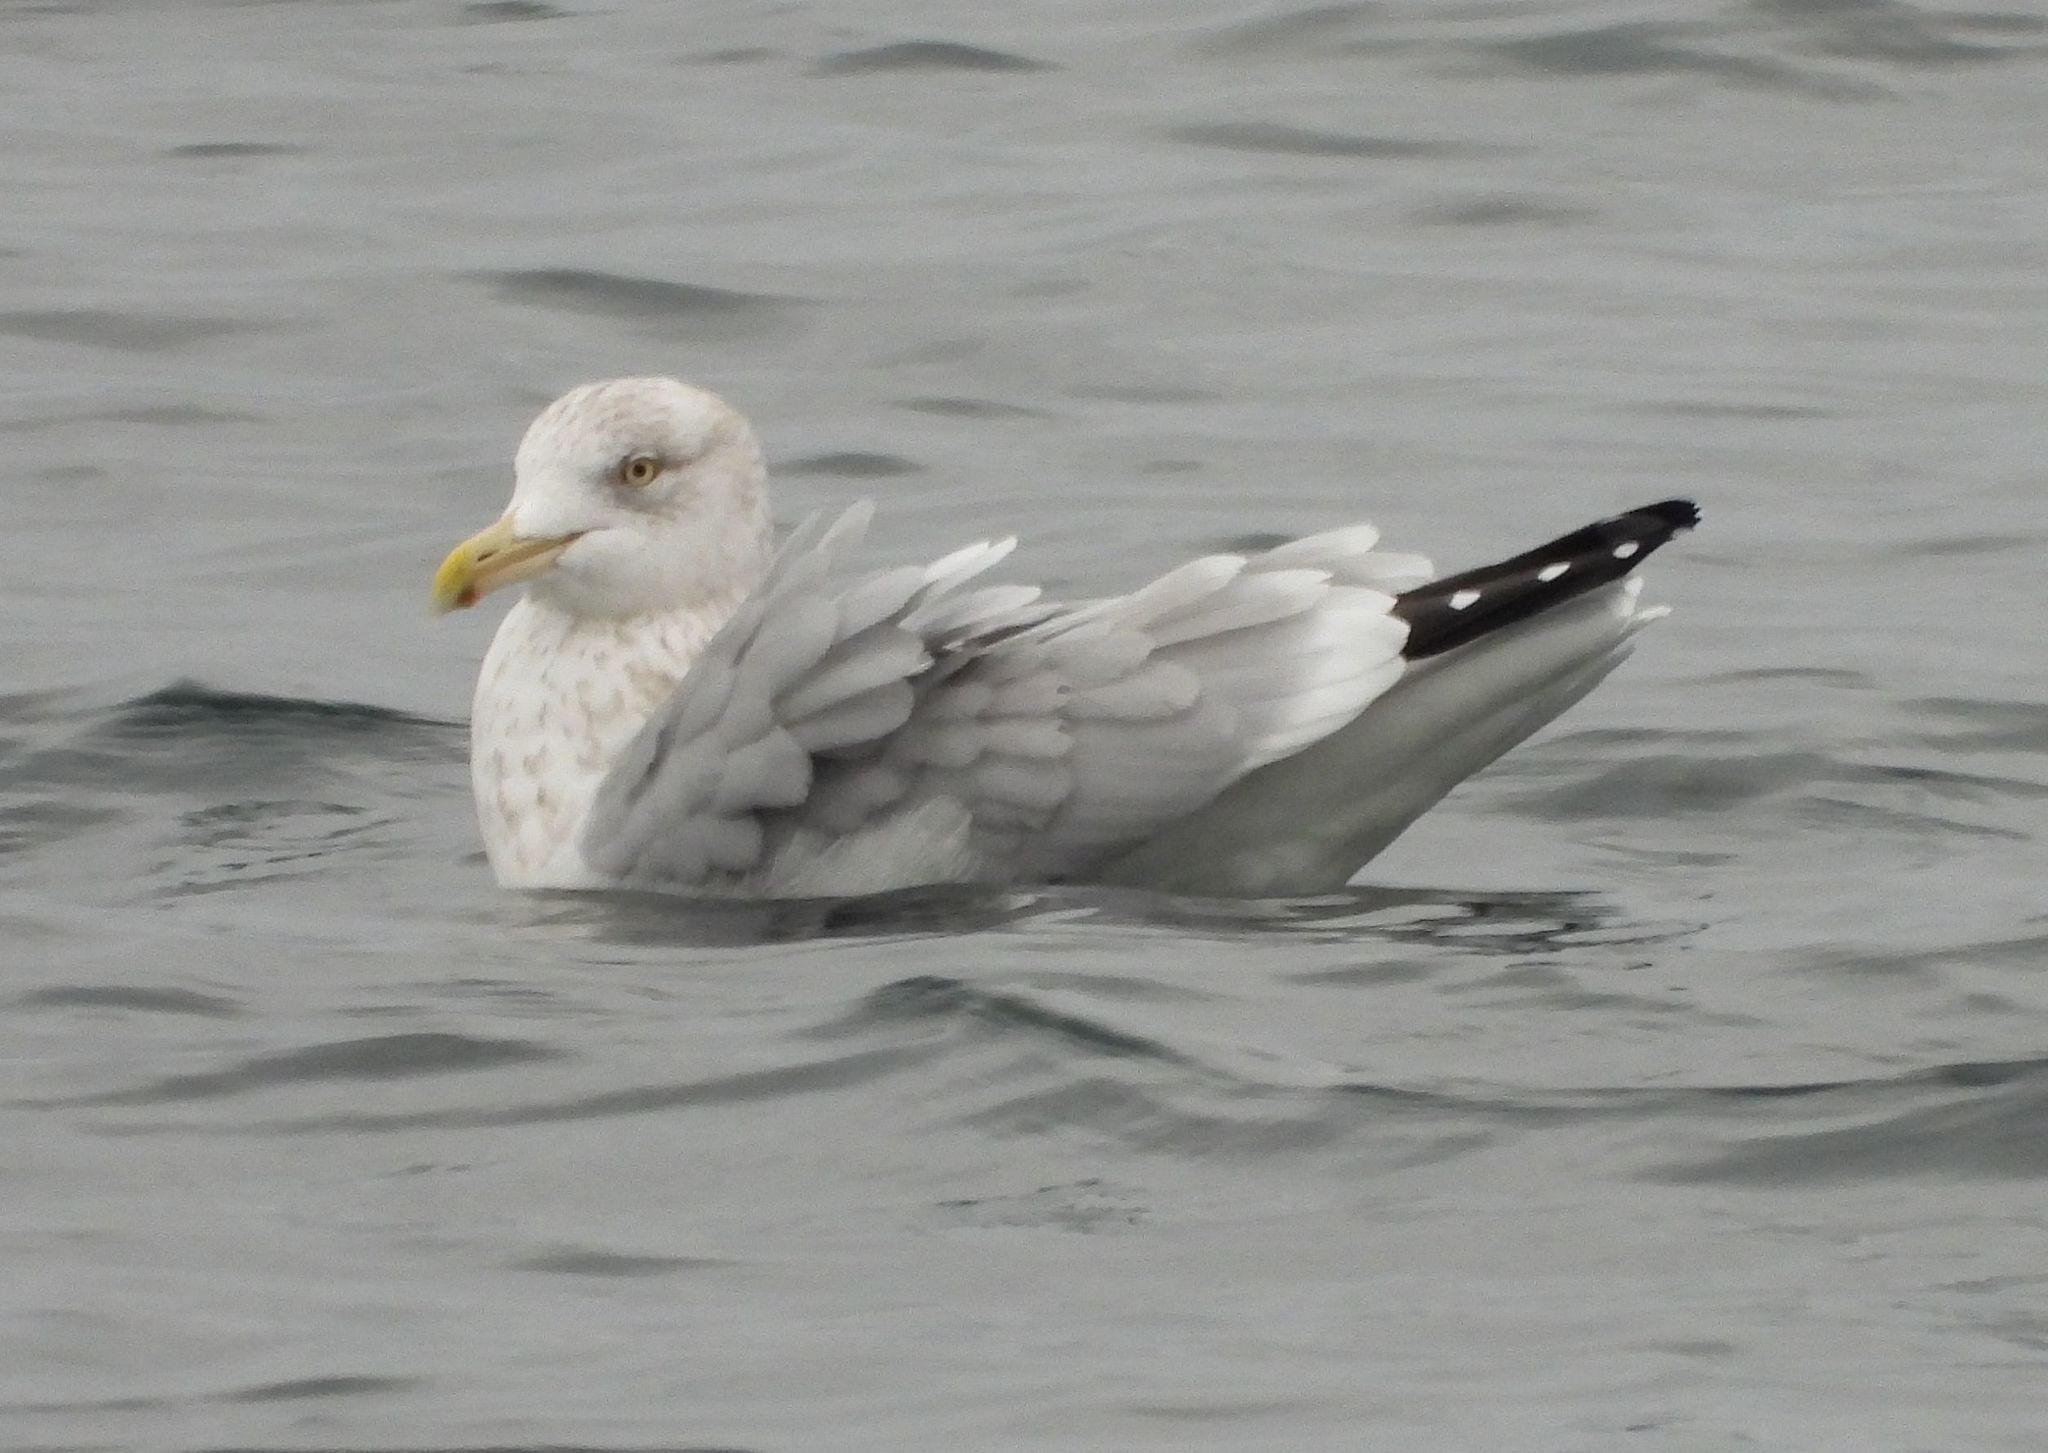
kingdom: Animalia
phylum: Chordata
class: Aves
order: Charadriiformes
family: Laridae
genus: Larus
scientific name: Larus argentatus
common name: Herring gull
